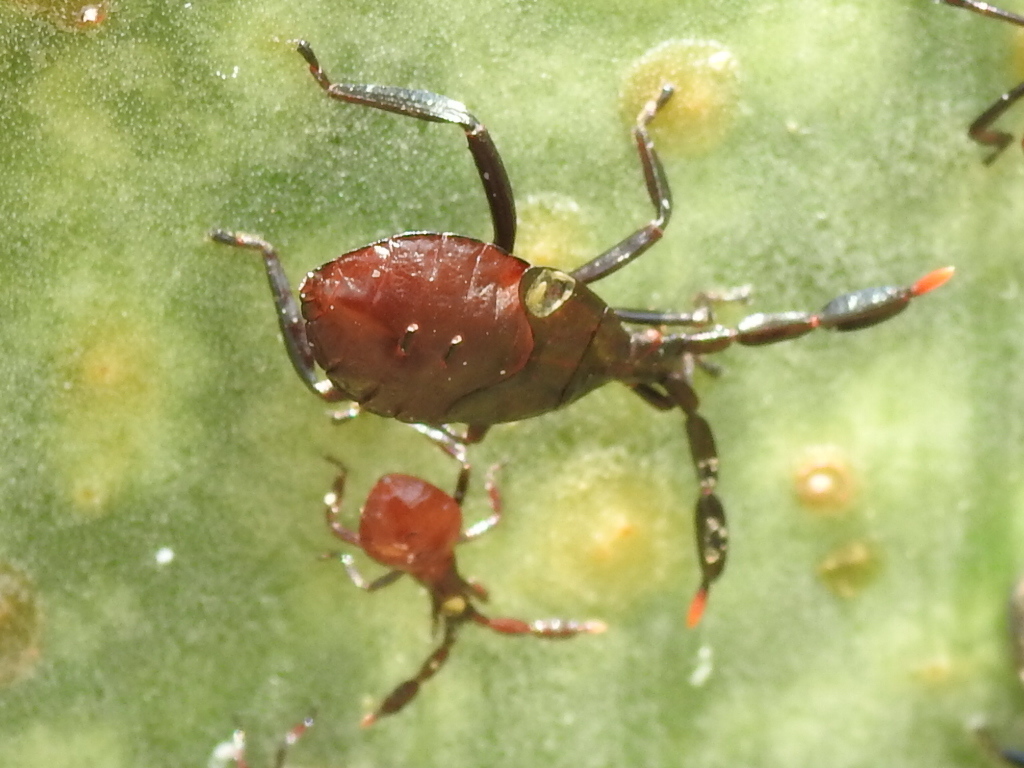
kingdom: Animalia
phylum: Arthropoda
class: Insecta
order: Hemiptera
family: Coreidae
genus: Chelinidea
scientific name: Chelinidea vittiger
